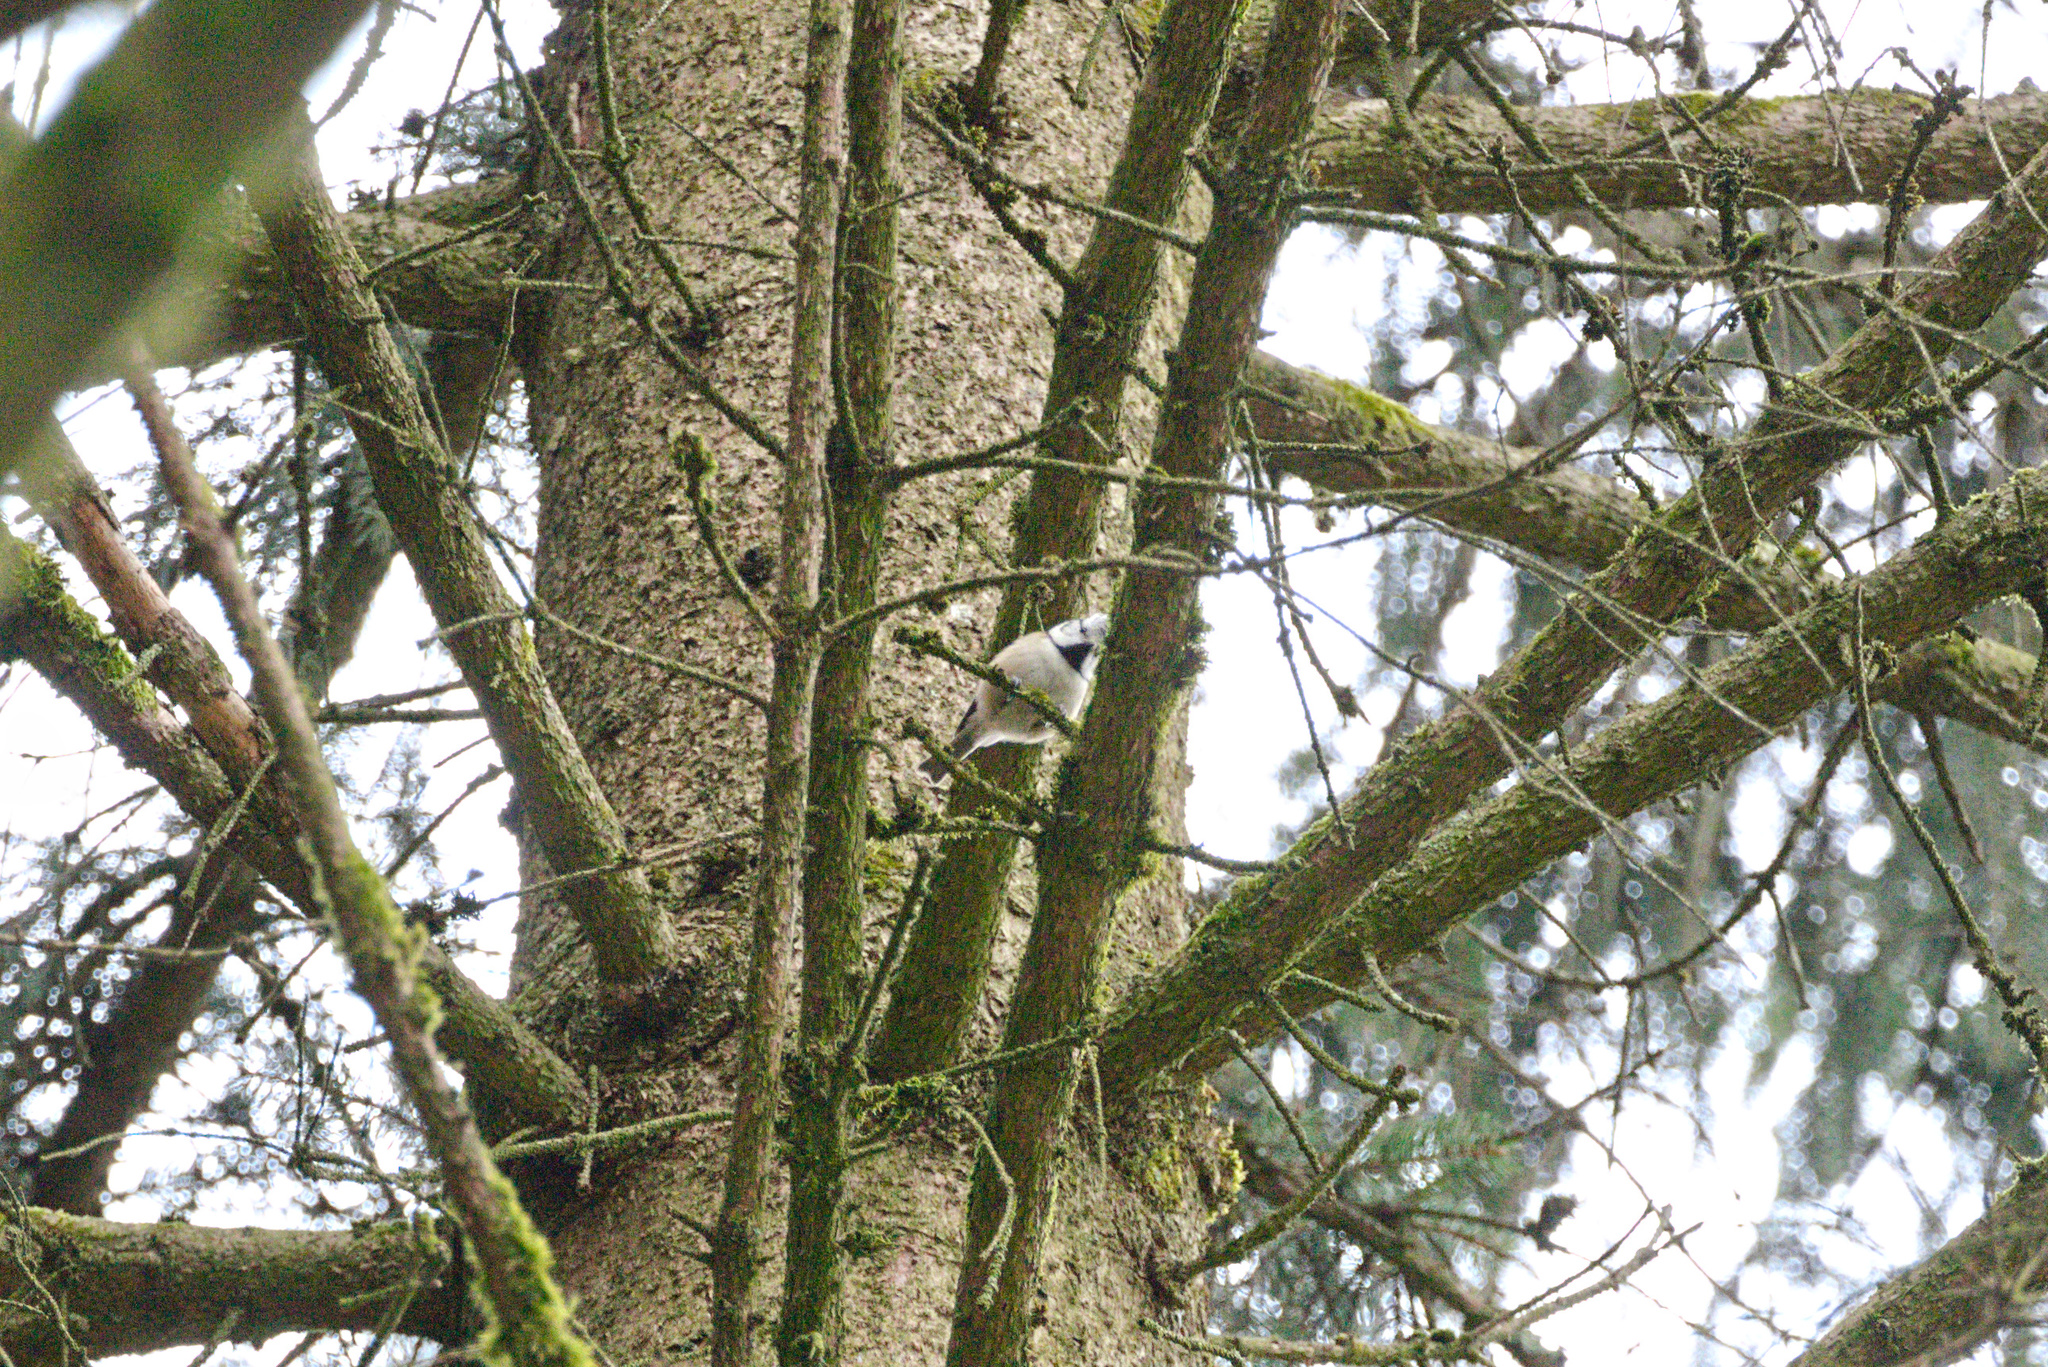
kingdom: Animalia
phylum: Chordata
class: Aves
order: Passeriformes
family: Paridae
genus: Lophophanes
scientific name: Lophophanes cristatus
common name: European crested tit
